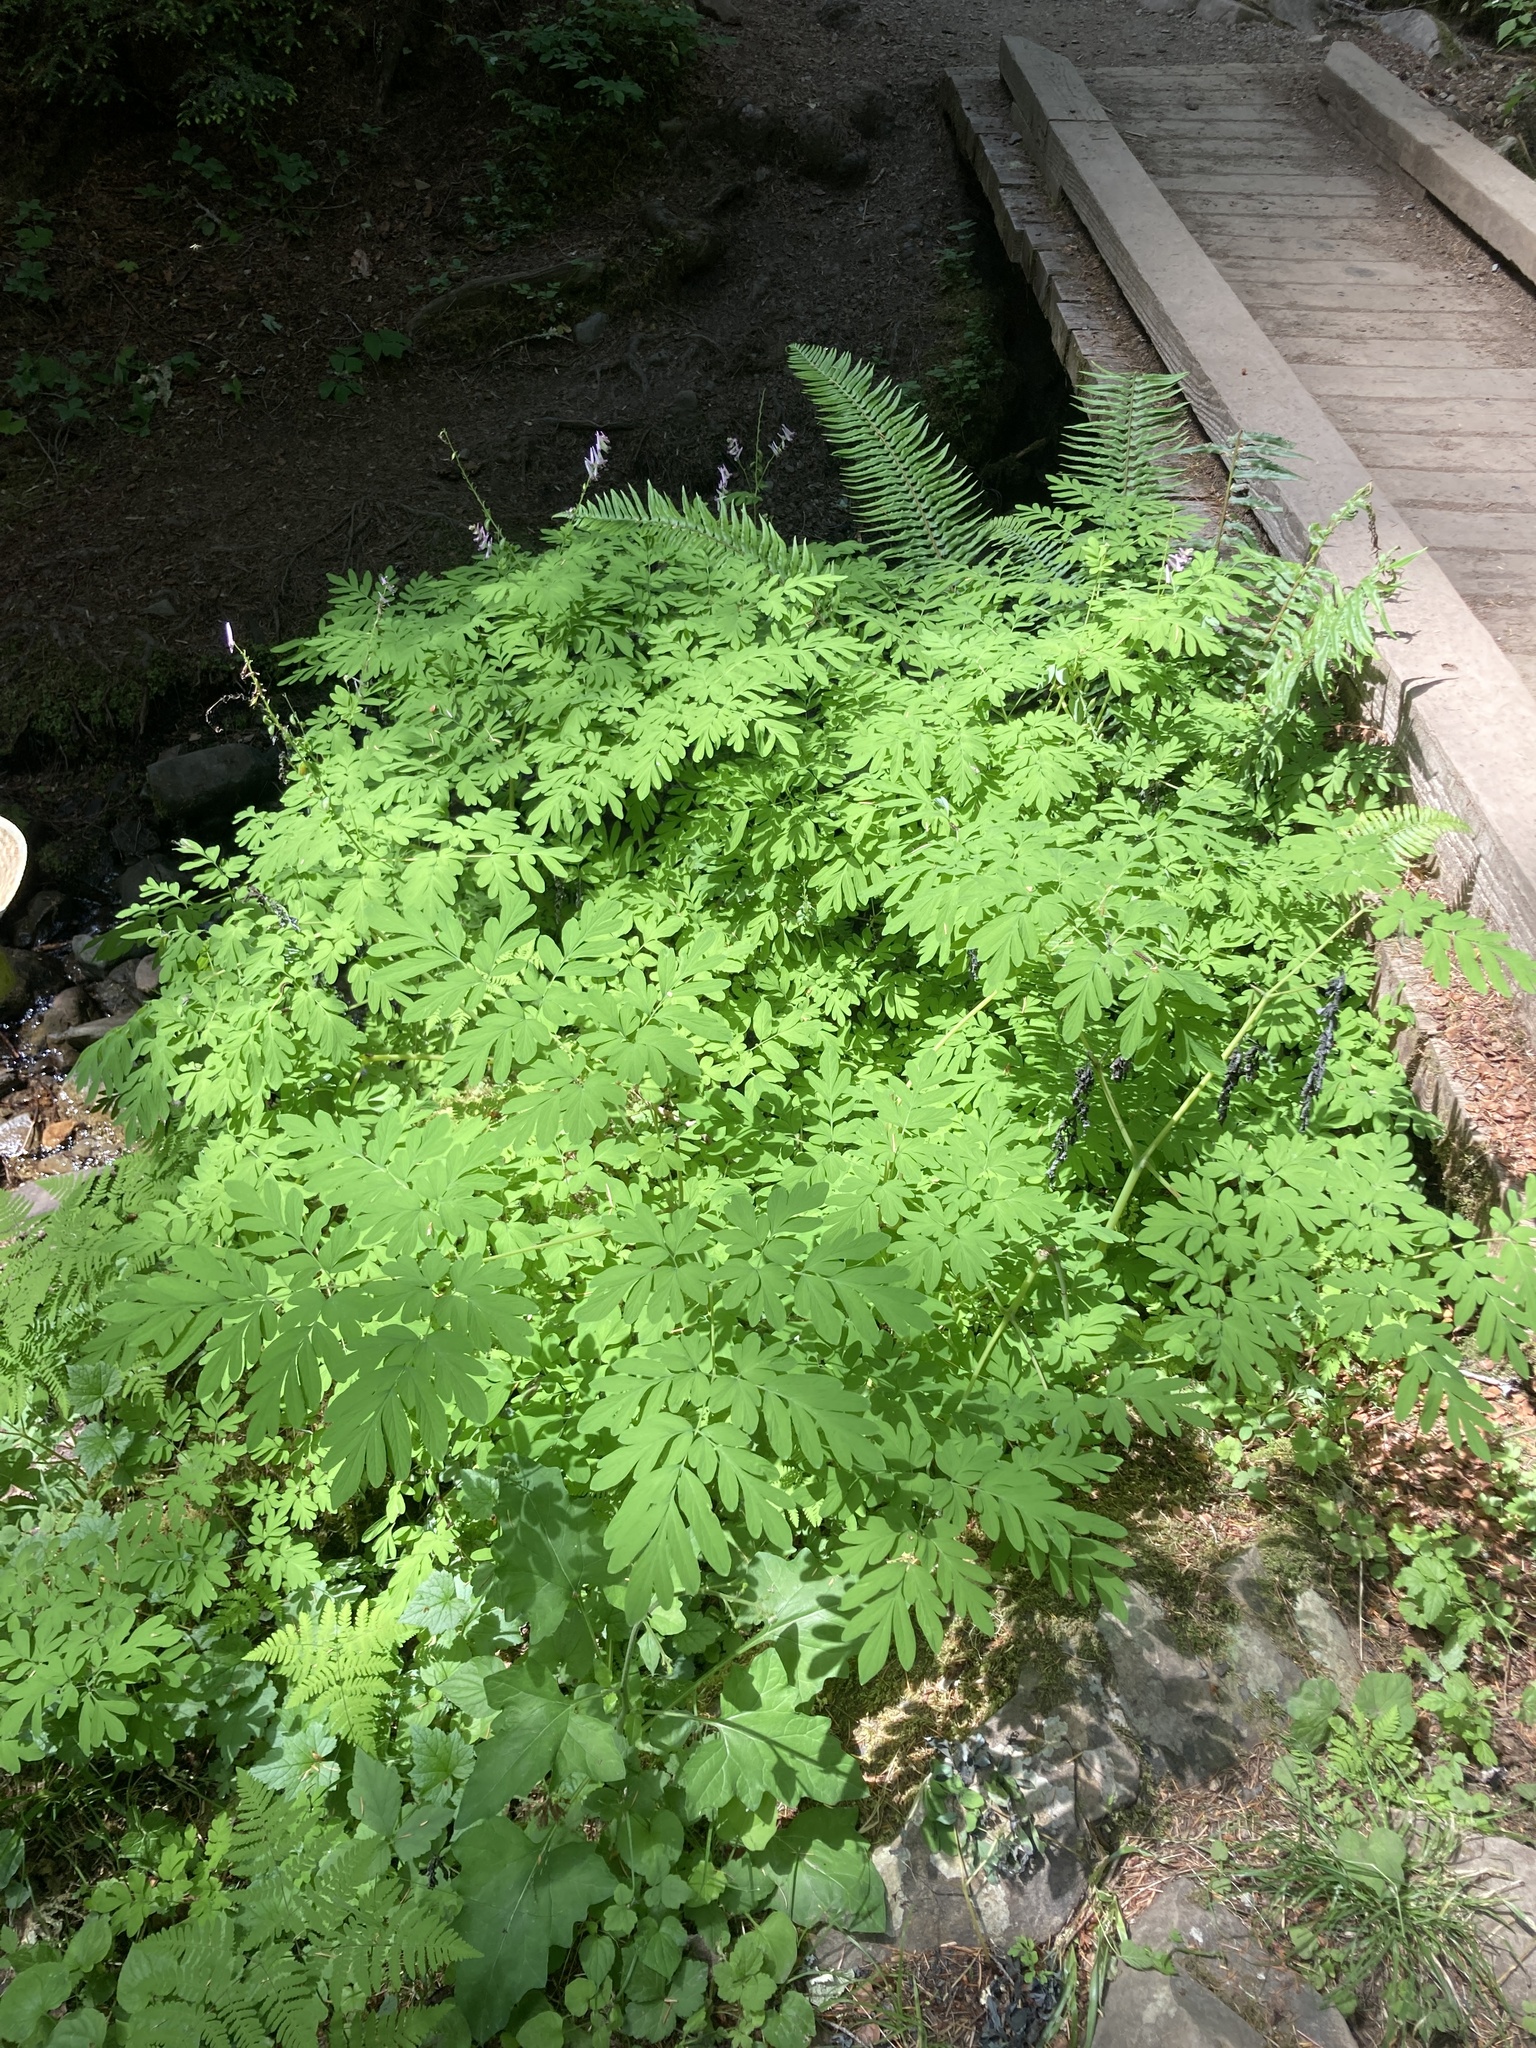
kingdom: Plantae
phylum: Tracheophyta
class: Magnoliopsida
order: Ranunculales
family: Papaveraceae
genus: Corydalis
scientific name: Corydalis scouleri
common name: Scouler's corydalis
